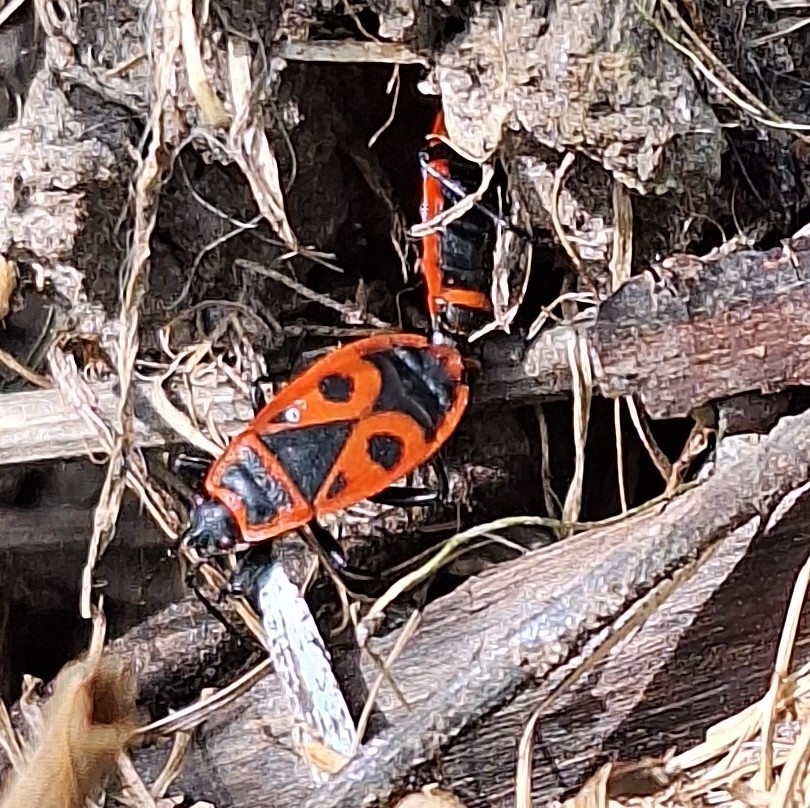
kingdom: Animalia
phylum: Arthropoda
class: Insecta
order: Hemiptera
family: Pyrrhocoridae
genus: Pyrrhocoris
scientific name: Pyrrhocoris apterus
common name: Firebug
